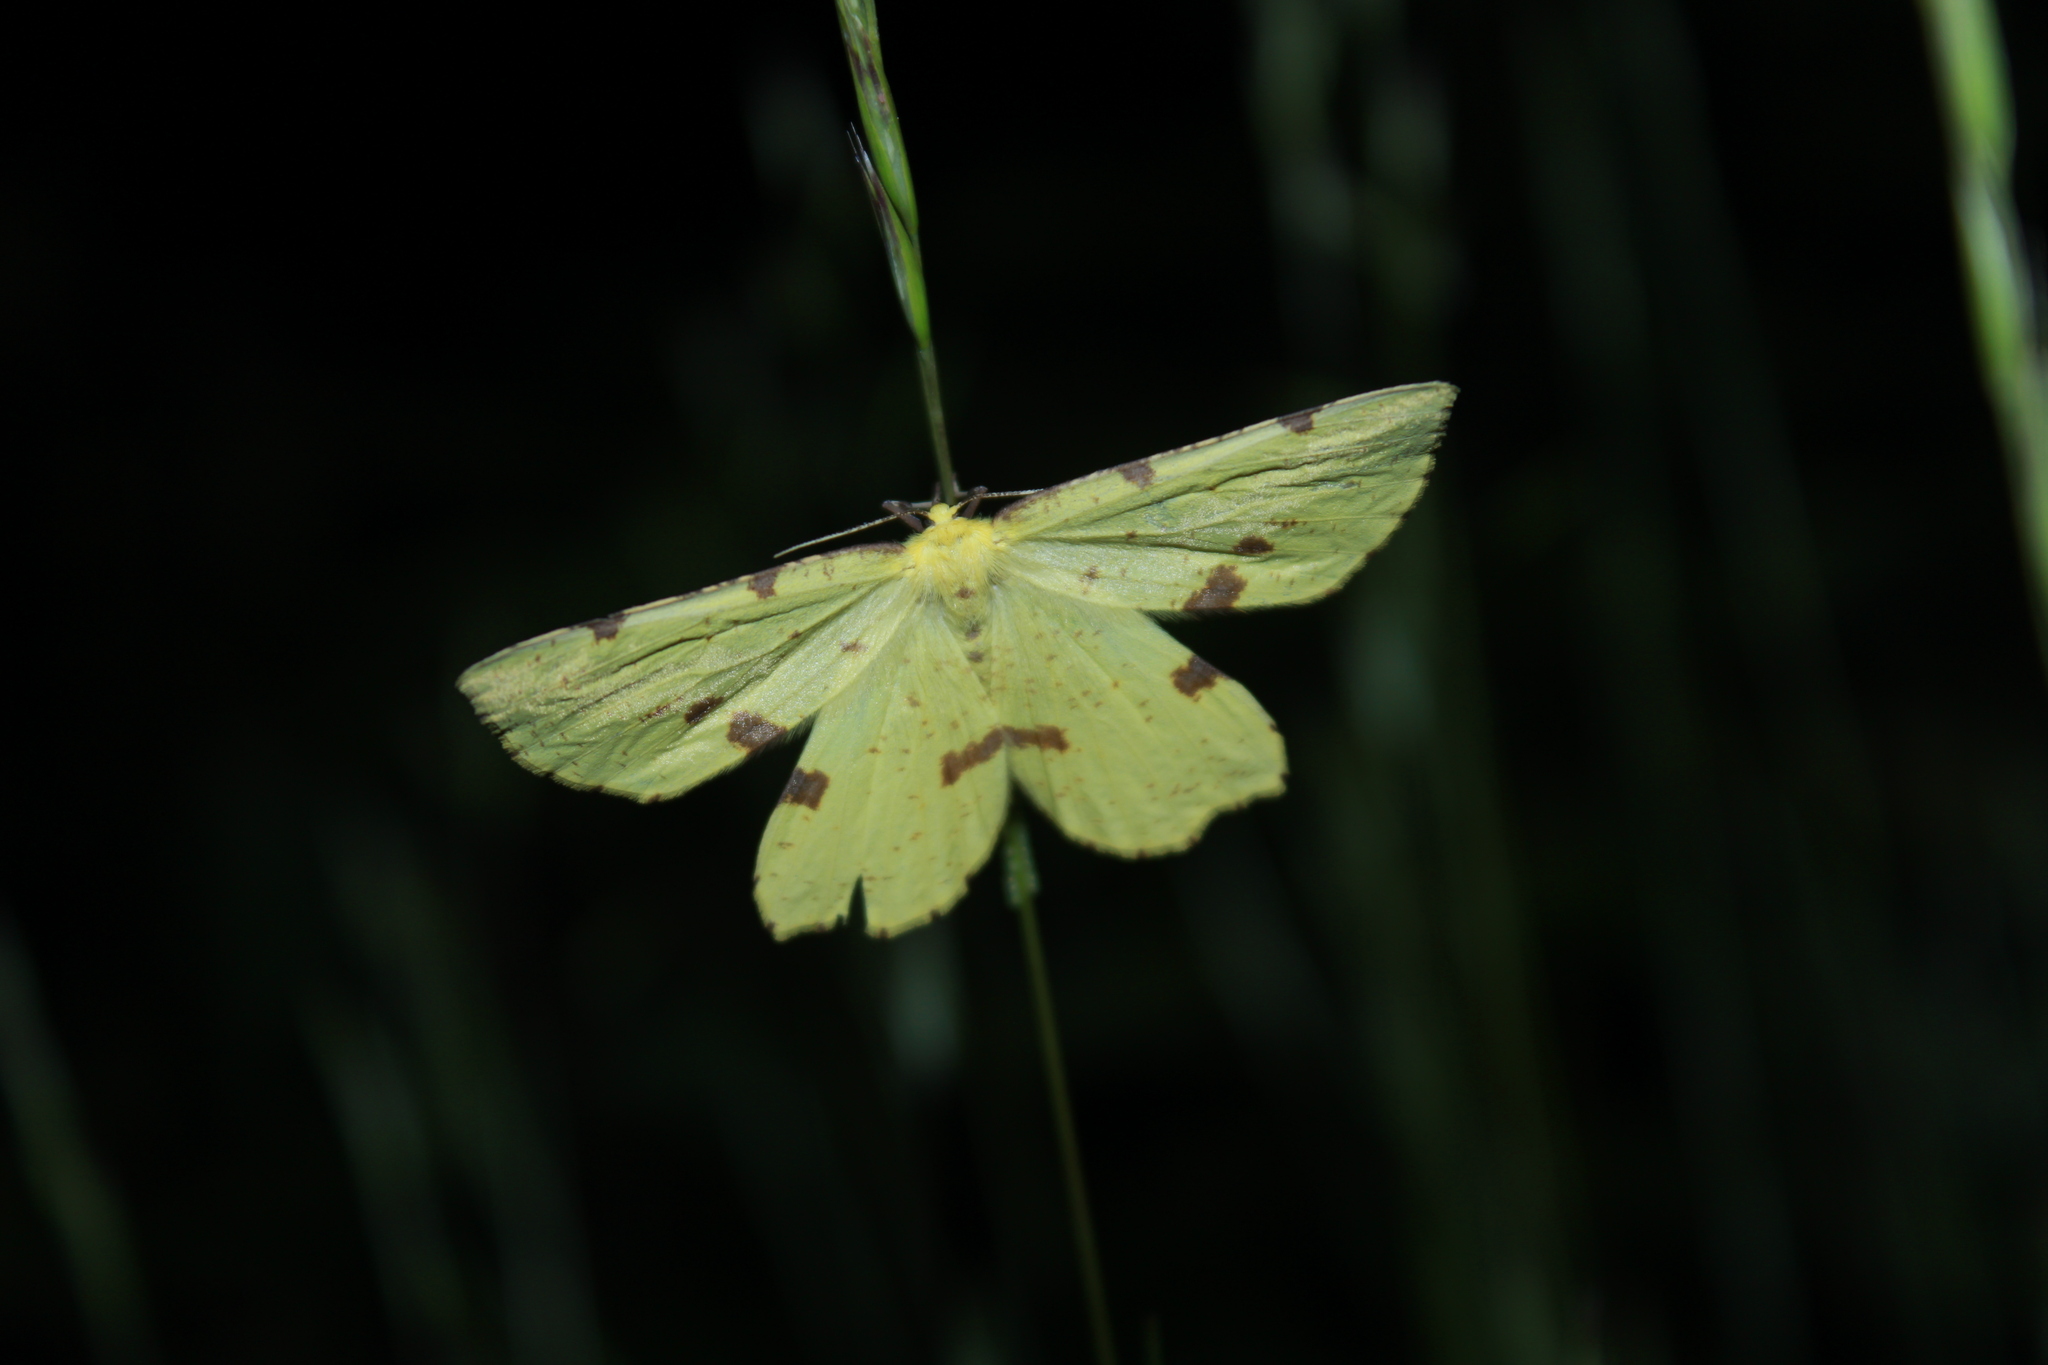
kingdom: Animalia
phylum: Arthropoda
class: Insecta
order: Lepidoptera
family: Geometridae
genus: Xanthotype
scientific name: Xanthotype
